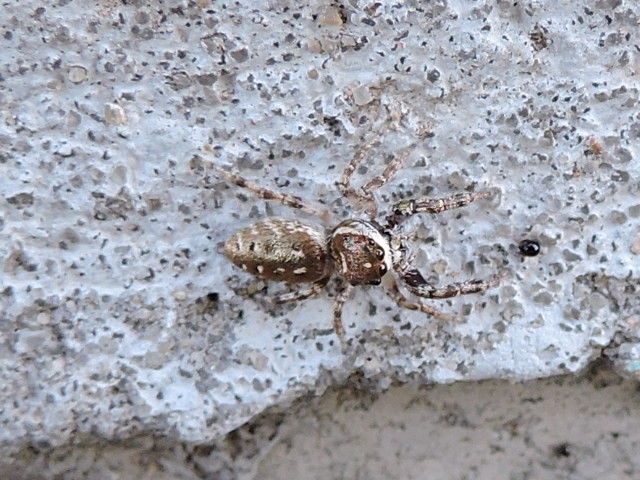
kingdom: Animalia
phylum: Arthropoda
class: Arachnida
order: Araneae
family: Salticidae
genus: Bagheera
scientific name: Bagheera prosper
